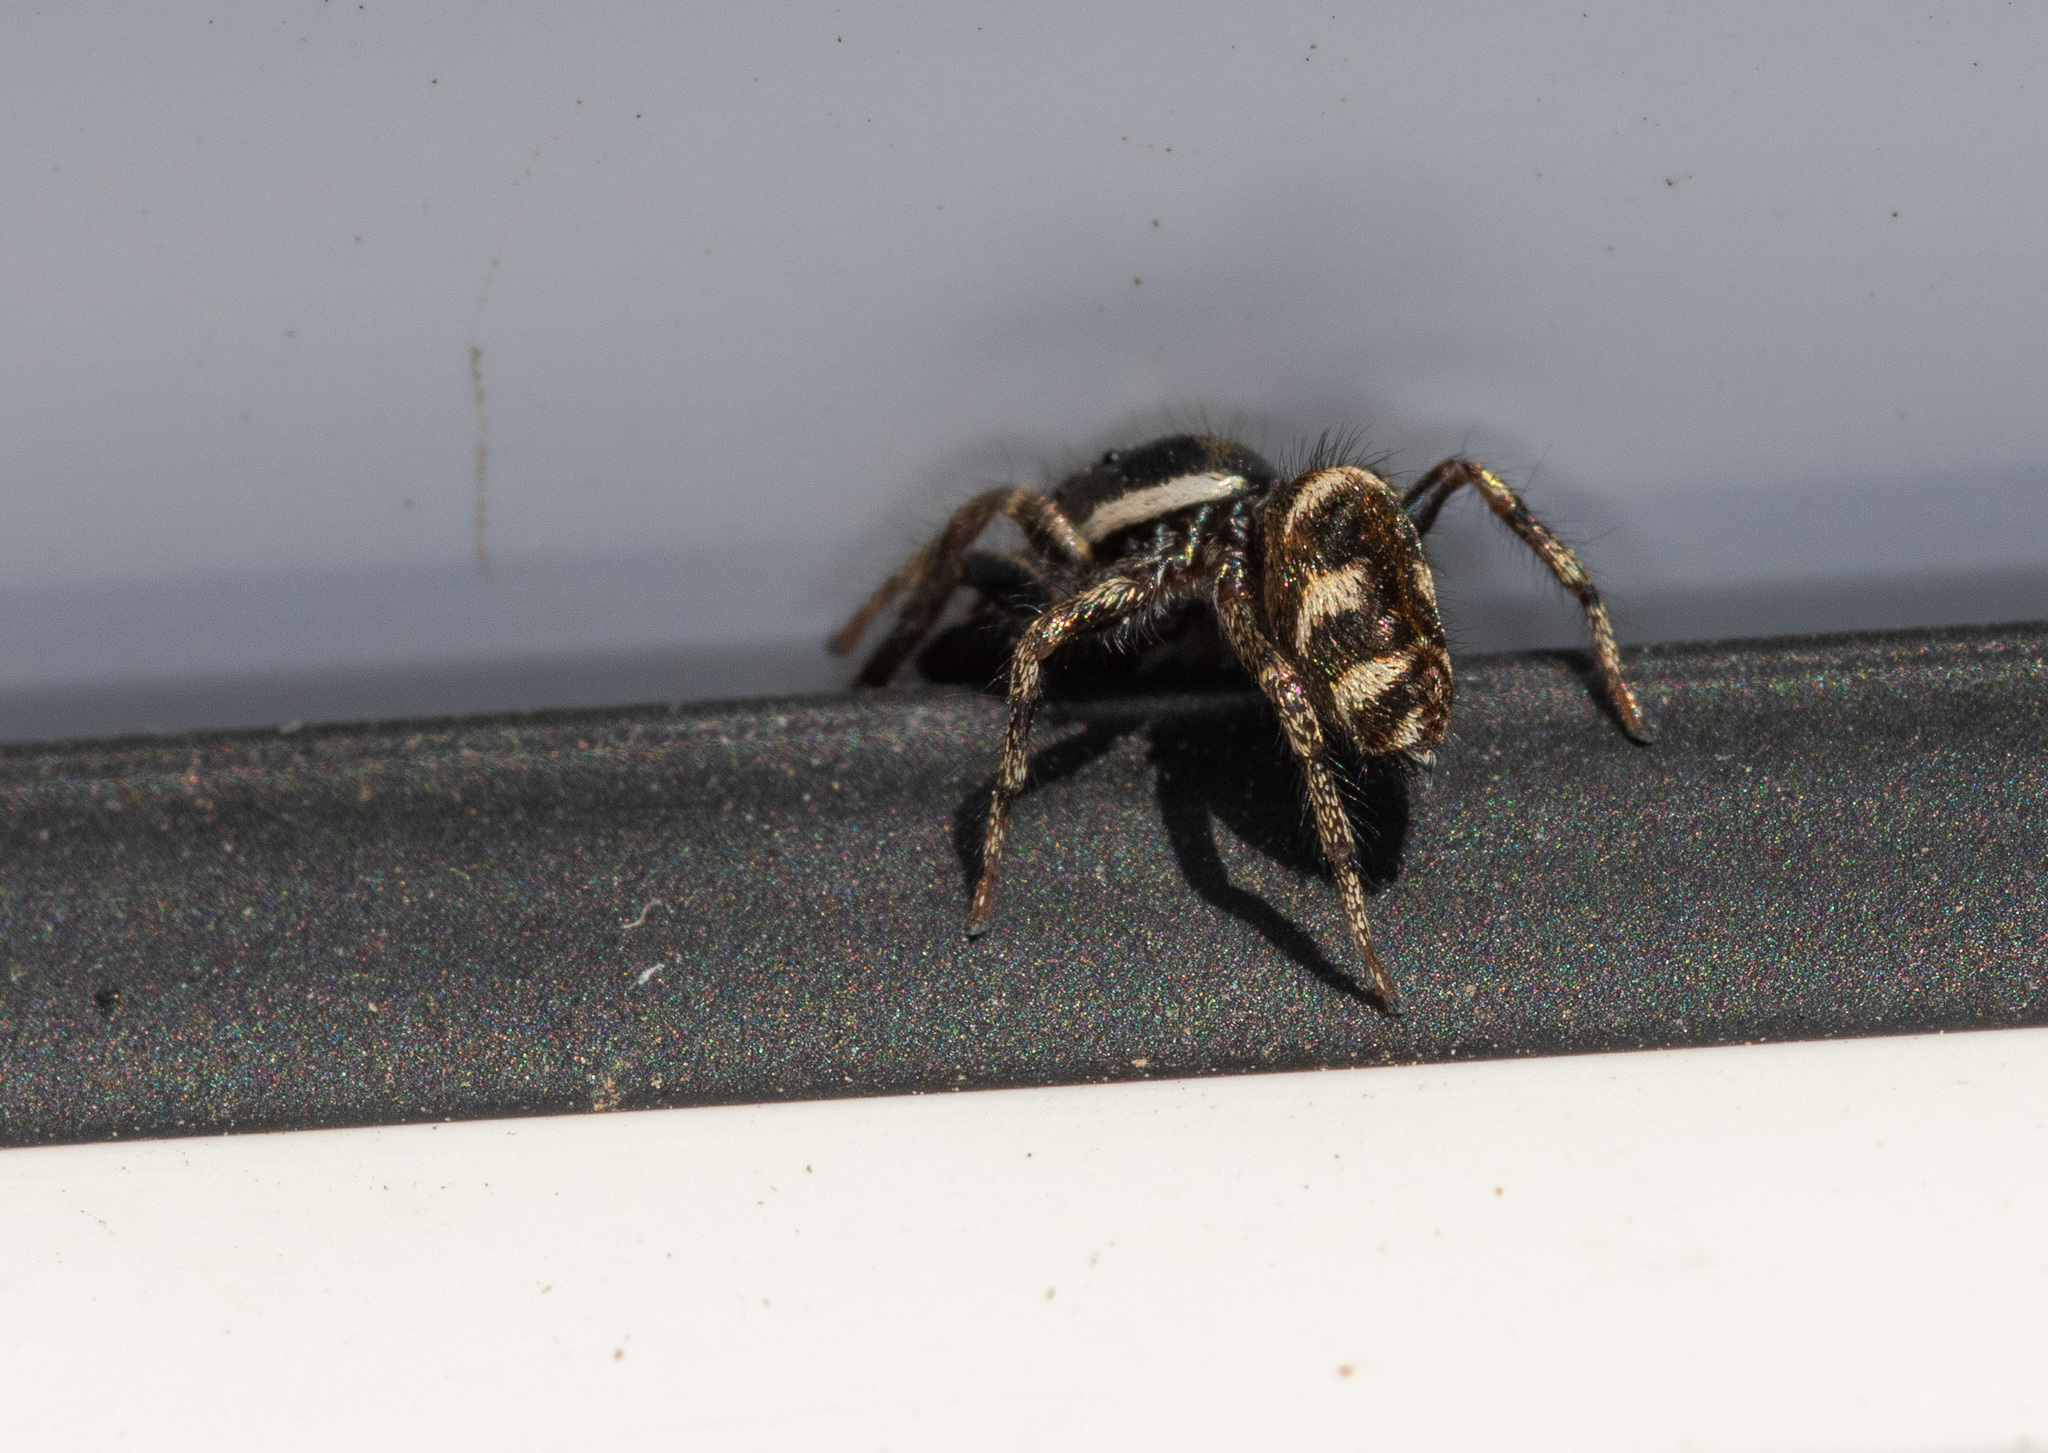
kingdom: Animalia
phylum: Arthropoda
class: Arachnida
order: Araneae
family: Salticidae
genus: Salticus
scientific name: Salticus scenicus
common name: Zebra jumper
